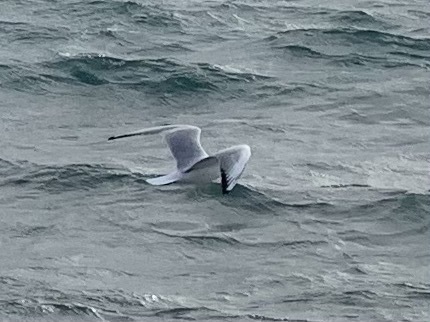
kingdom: Animalia
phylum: Chordata
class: Aves
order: Charadriiformes
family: Laridae
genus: Chroicocephalus
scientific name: Chroicocephalus ridibundus
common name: Black-headed gull
